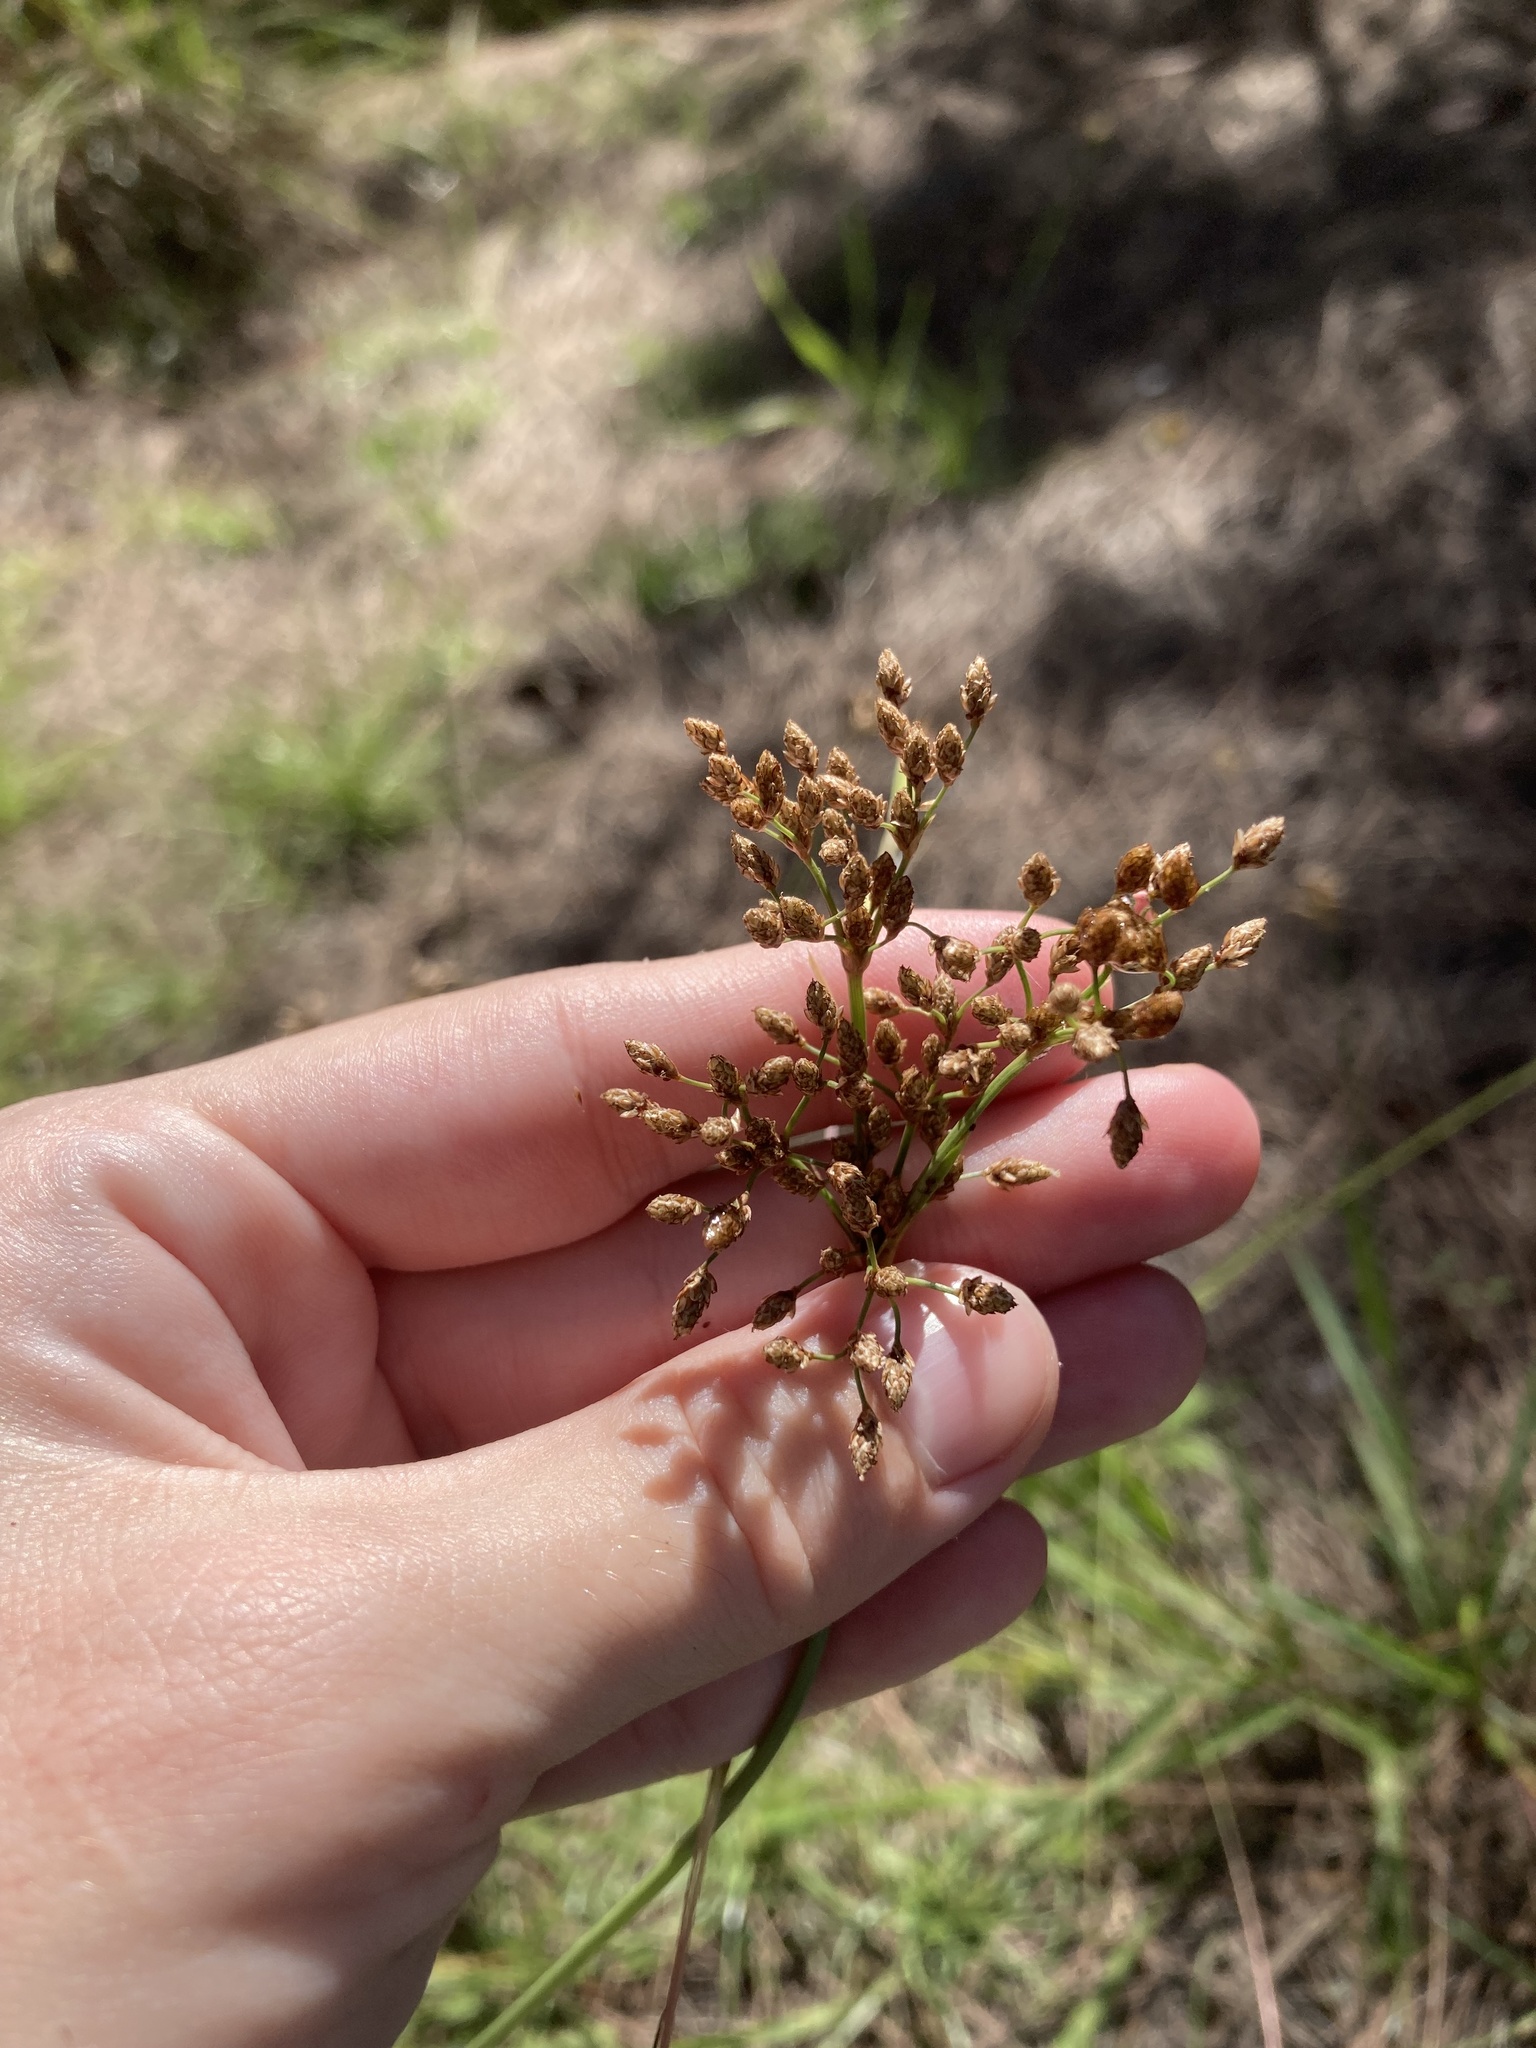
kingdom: Plantae
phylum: Tracheophyta
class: Liliopsida
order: Poales
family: Cyperaceae
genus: Fimbristylis
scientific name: Fimbristylis cymosa
